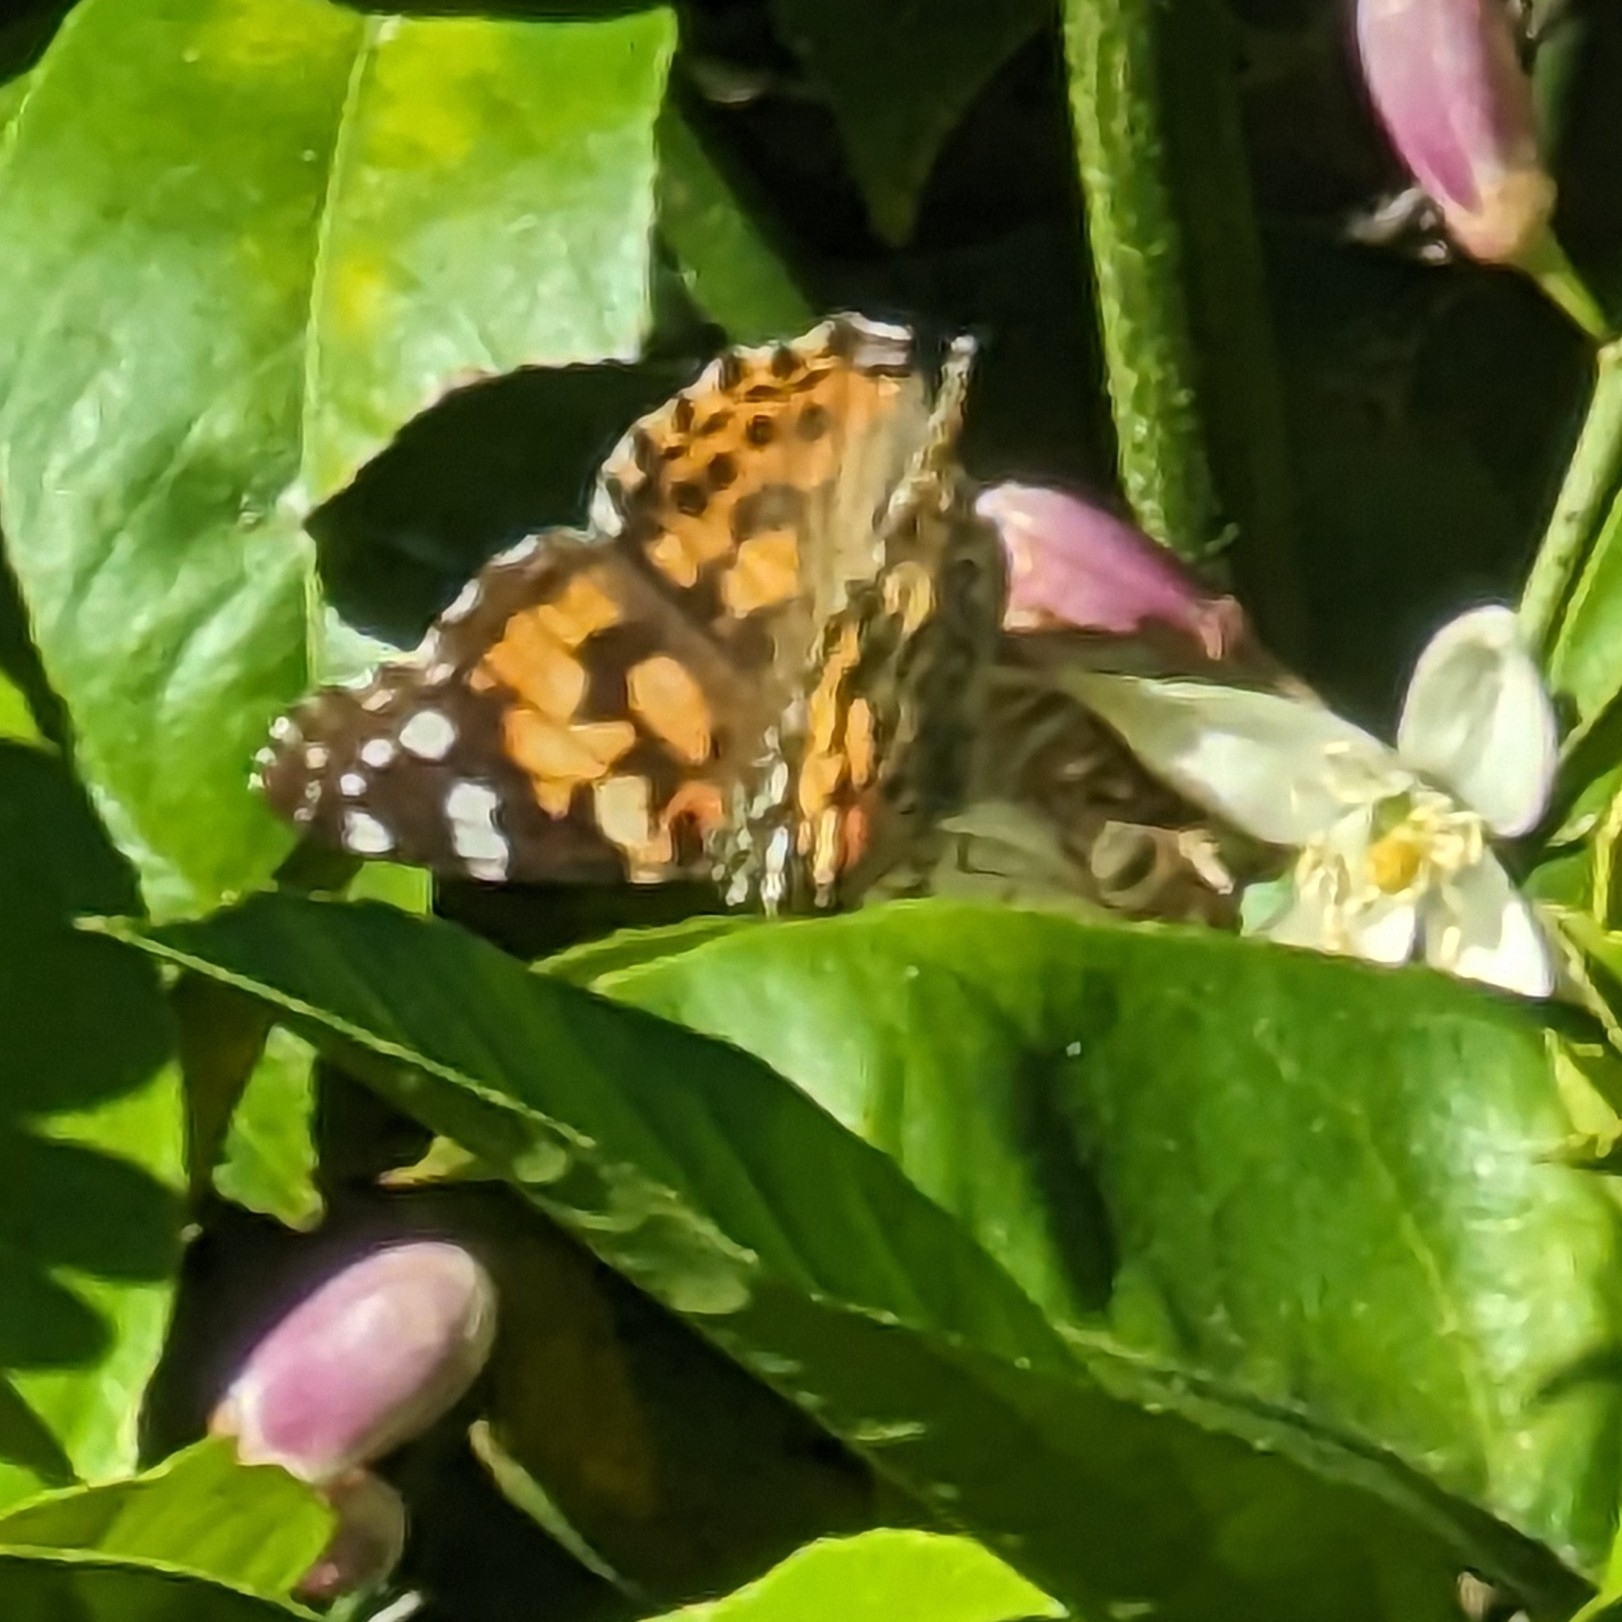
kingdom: Animalia
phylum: Arthropoda
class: Insecta
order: Lepidoptera
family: Nymphalidae
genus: Vanessa
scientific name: Vanessa cardui
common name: Painted lady
